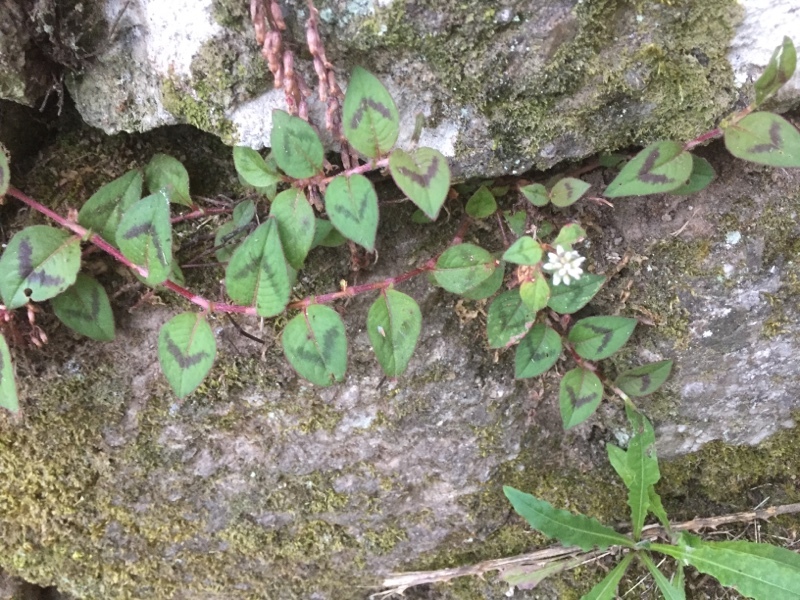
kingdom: Plantae
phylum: Tracheophyta
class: Magnoliopsida
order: Caryophyllales
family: Polygonaceae
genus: Persicaria
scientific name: Persicaria capitata
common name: Pinkhead smartweed
